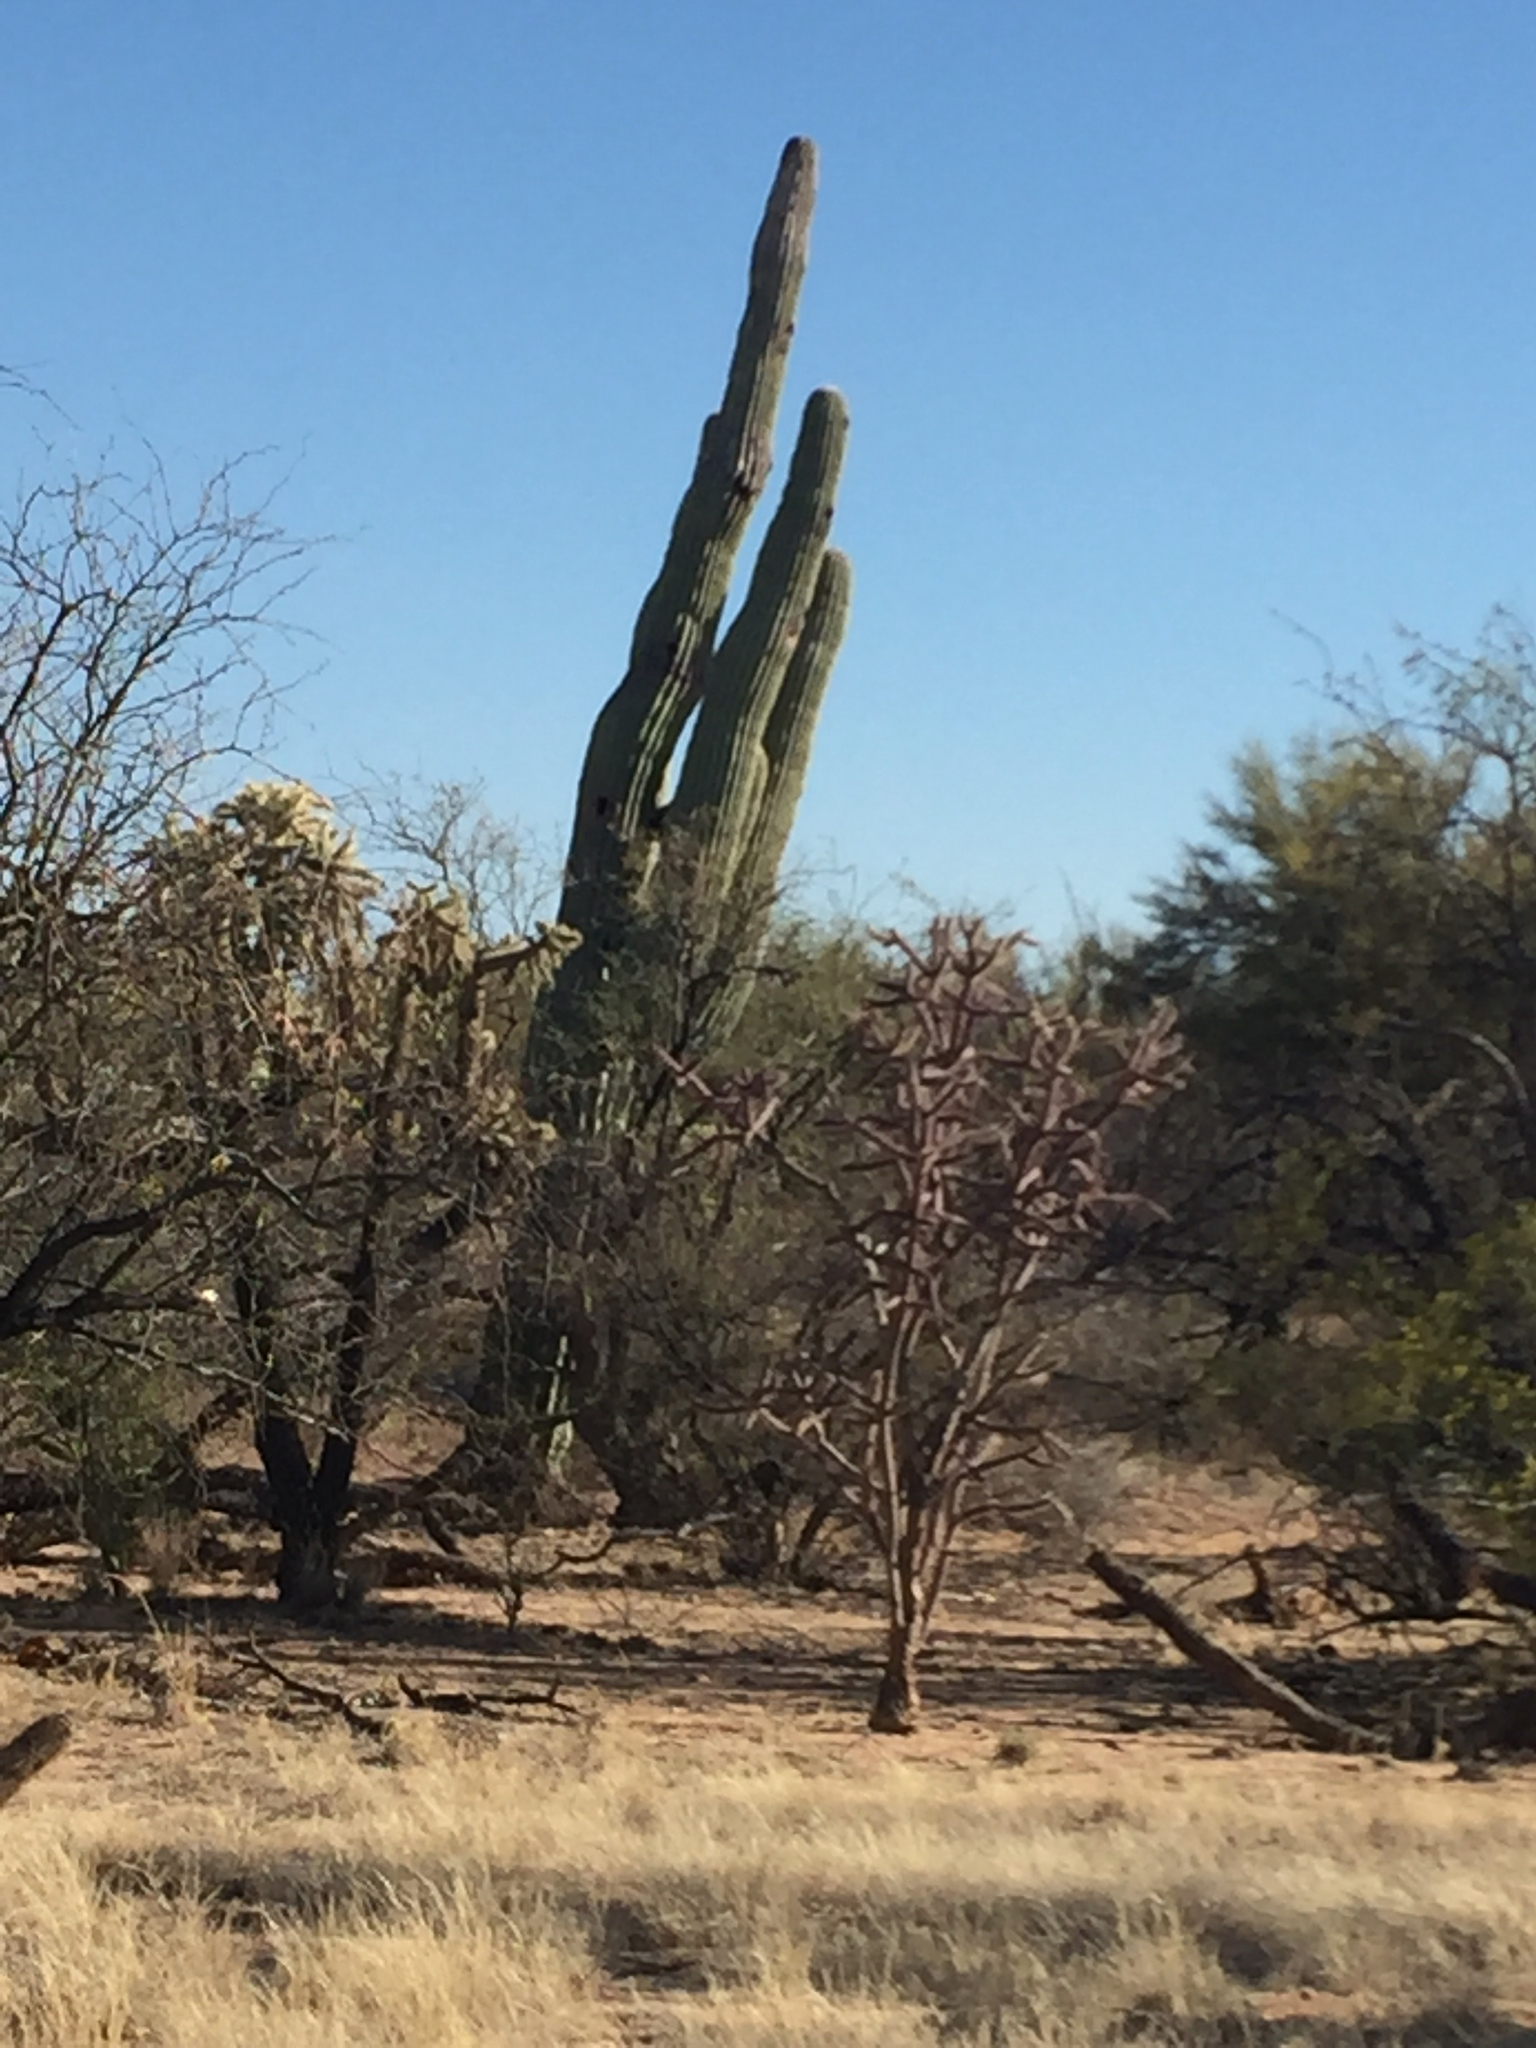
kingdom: Plantae
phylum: Tracheophyta
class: Magnoliopsida
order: Caryophyllales
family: Cactaceae
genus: Carnegiea
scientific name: Carnegiea gigantea
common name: Saguaro
